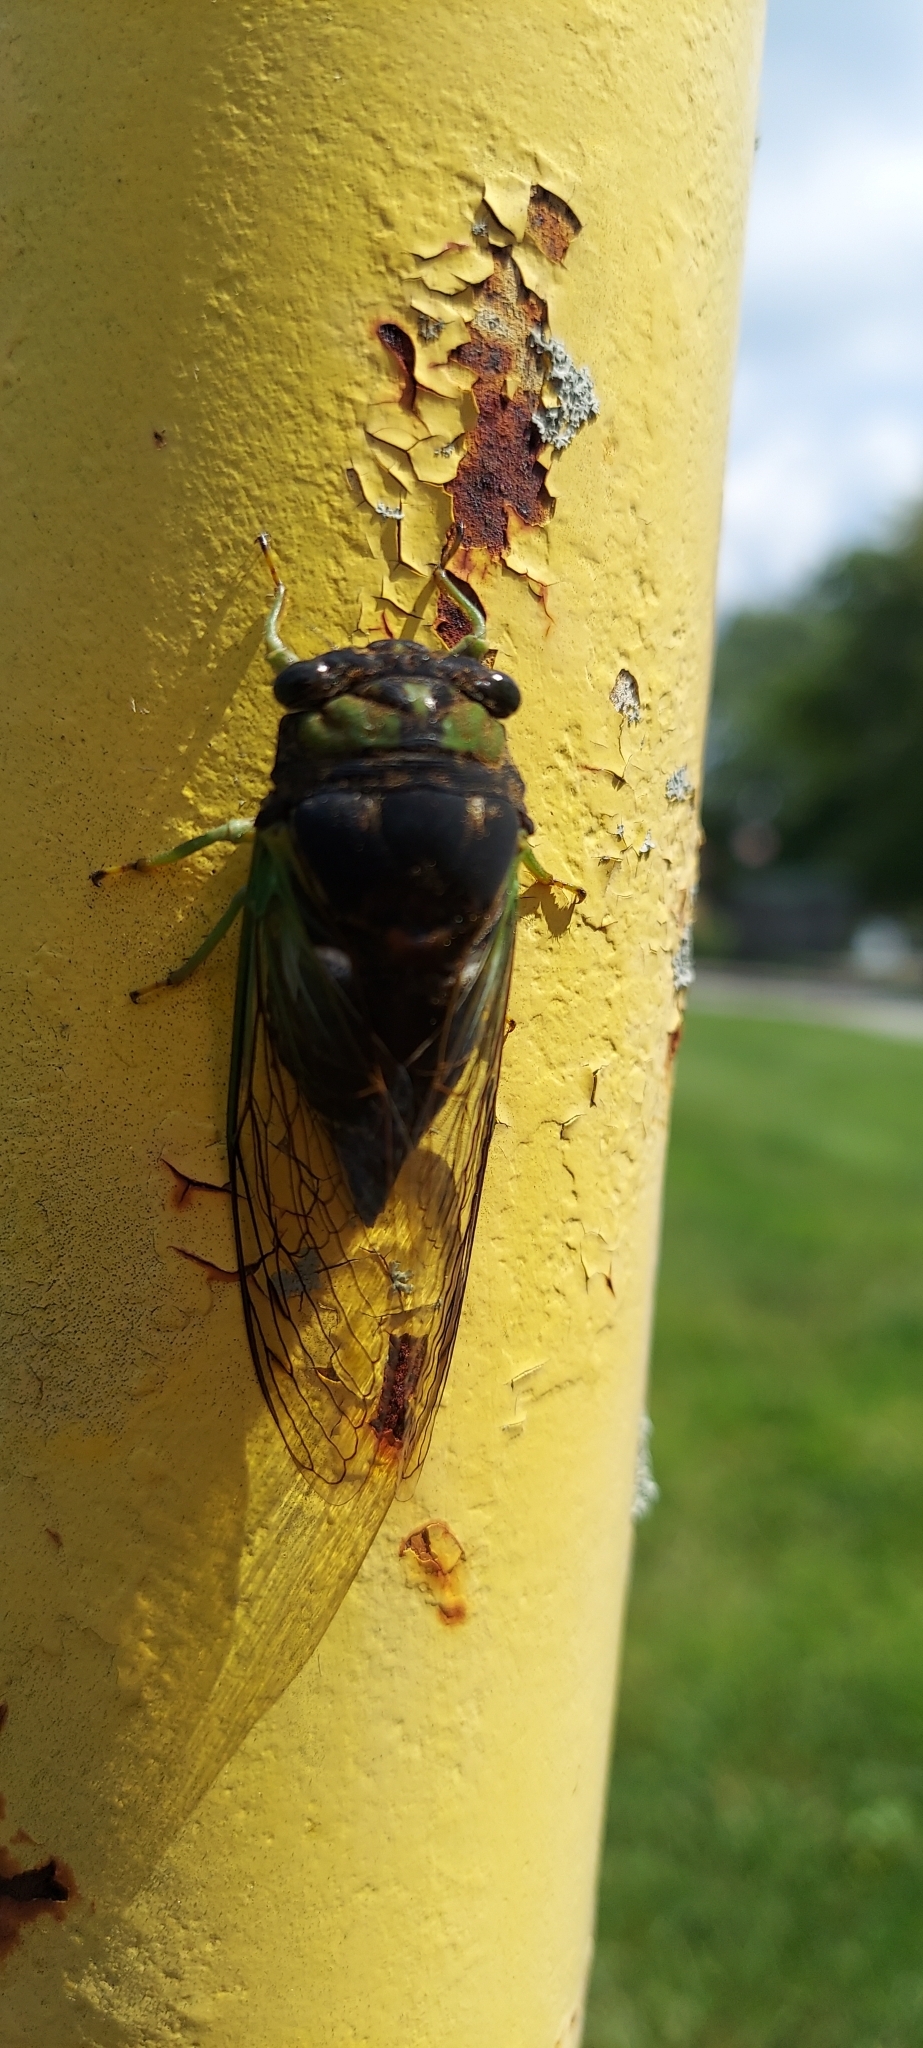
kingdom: Animalia
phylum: Arthropoda
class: Insecta
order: Hemiptera
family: Cicadidae
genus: Neotibicen
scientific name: Neotibicen tibicen
